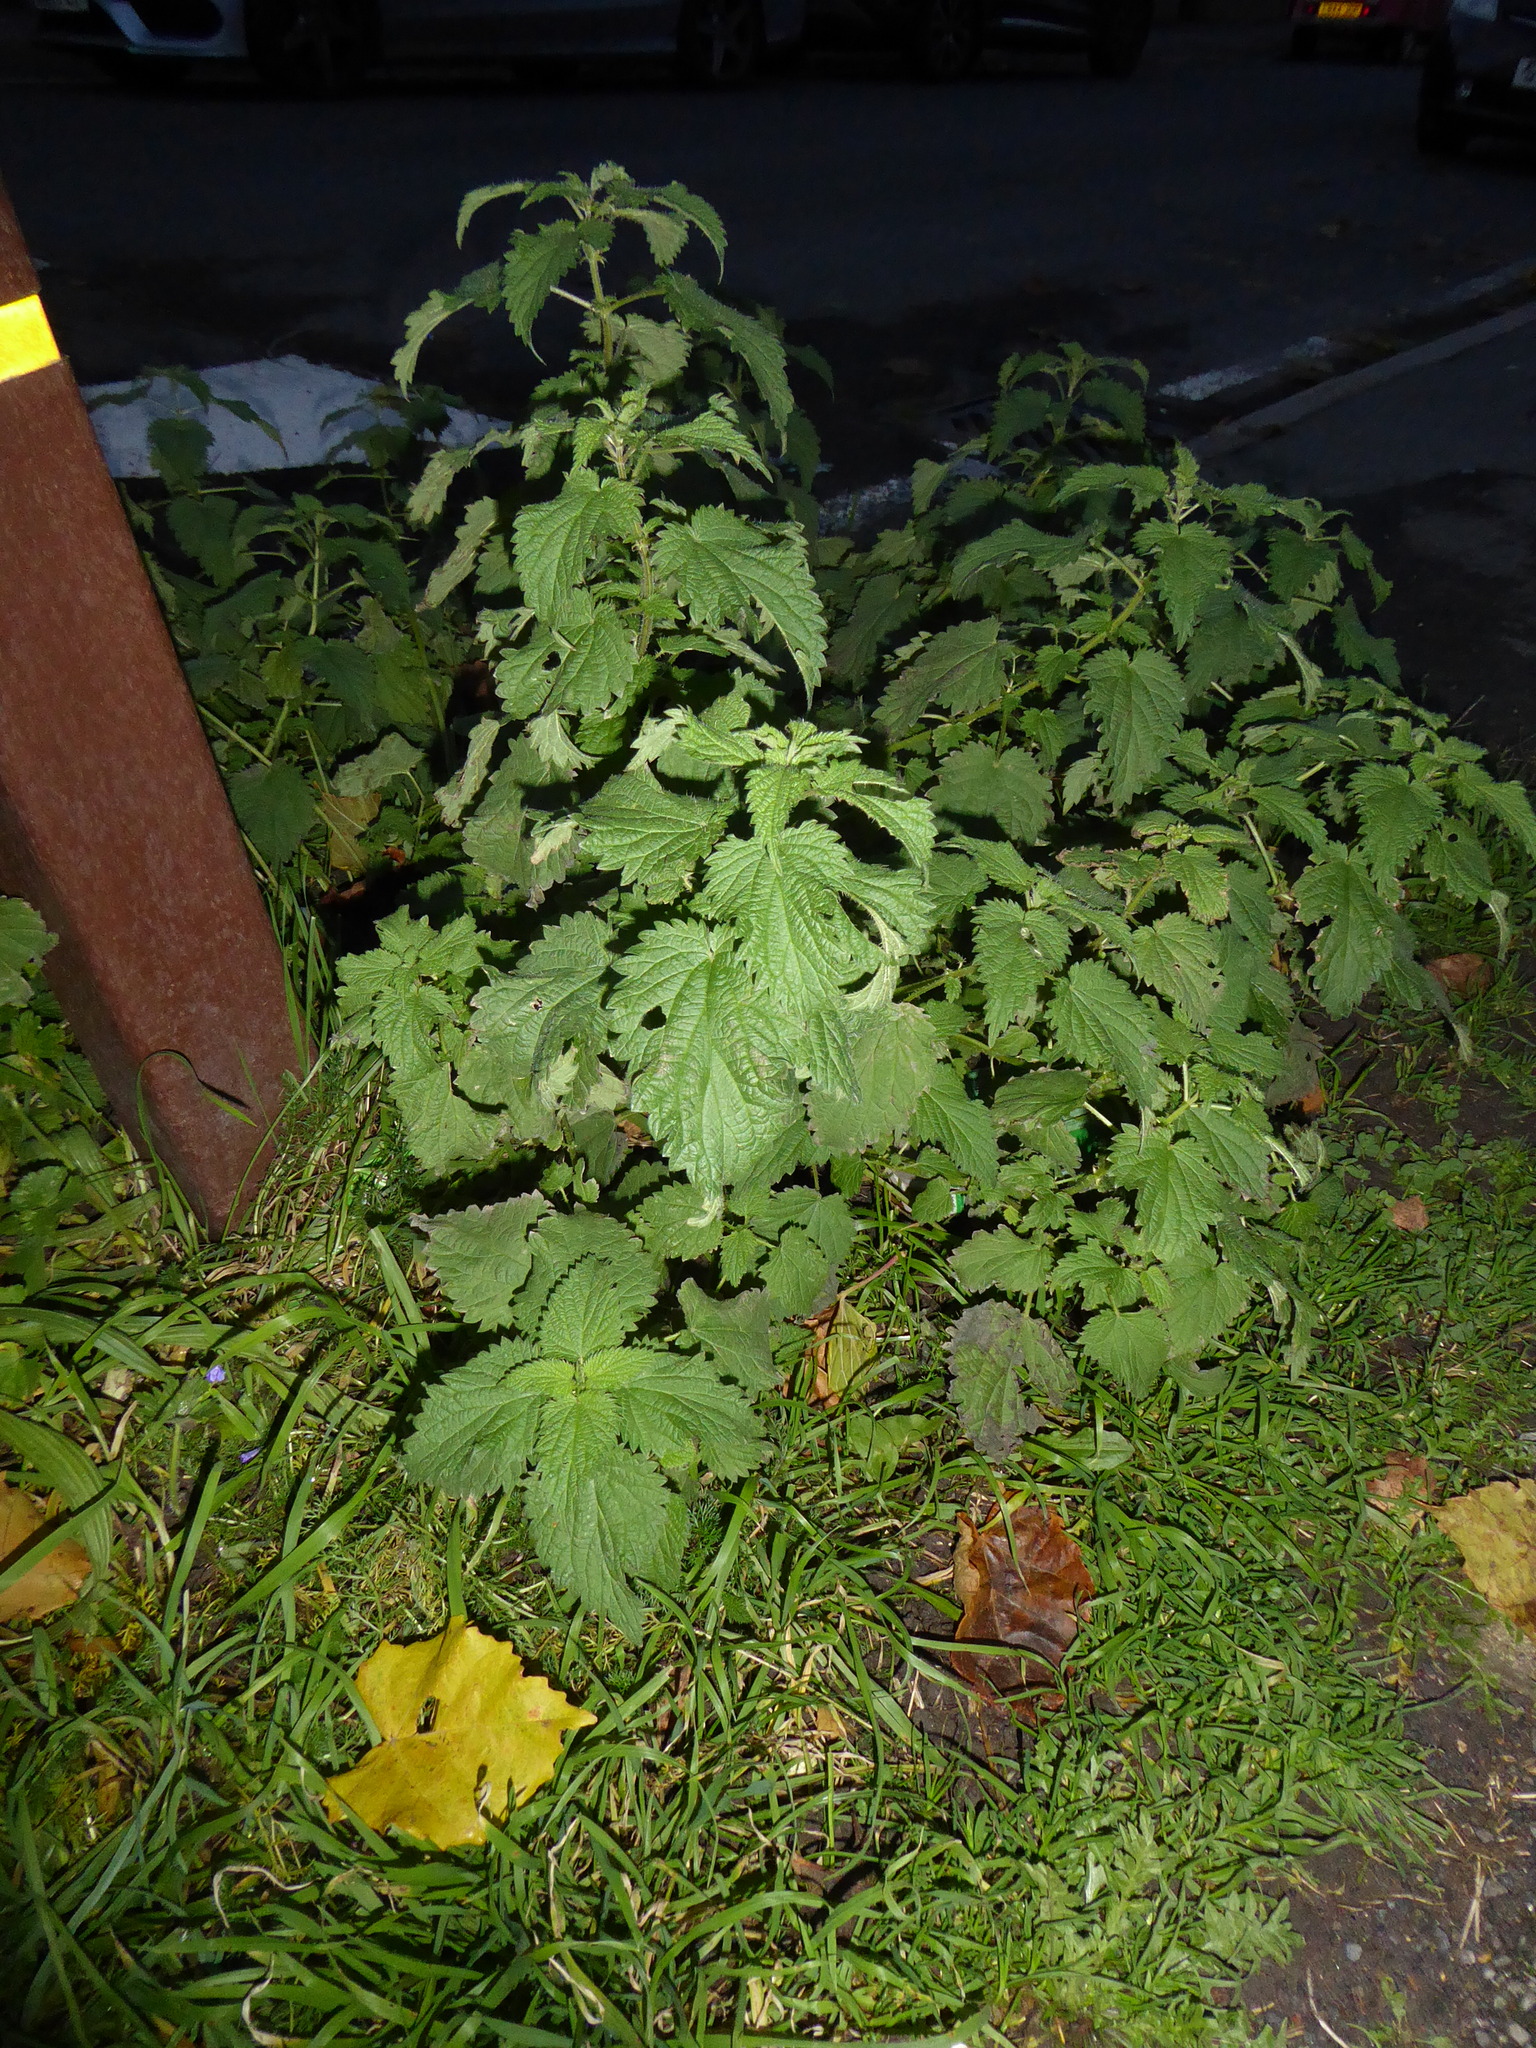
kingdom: Plantae
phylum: Tracheophyta
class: Magnoliopsida
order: Rosales
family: Urticaceae
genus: Urtica
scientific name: Urtica dioica
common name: Common nettle
